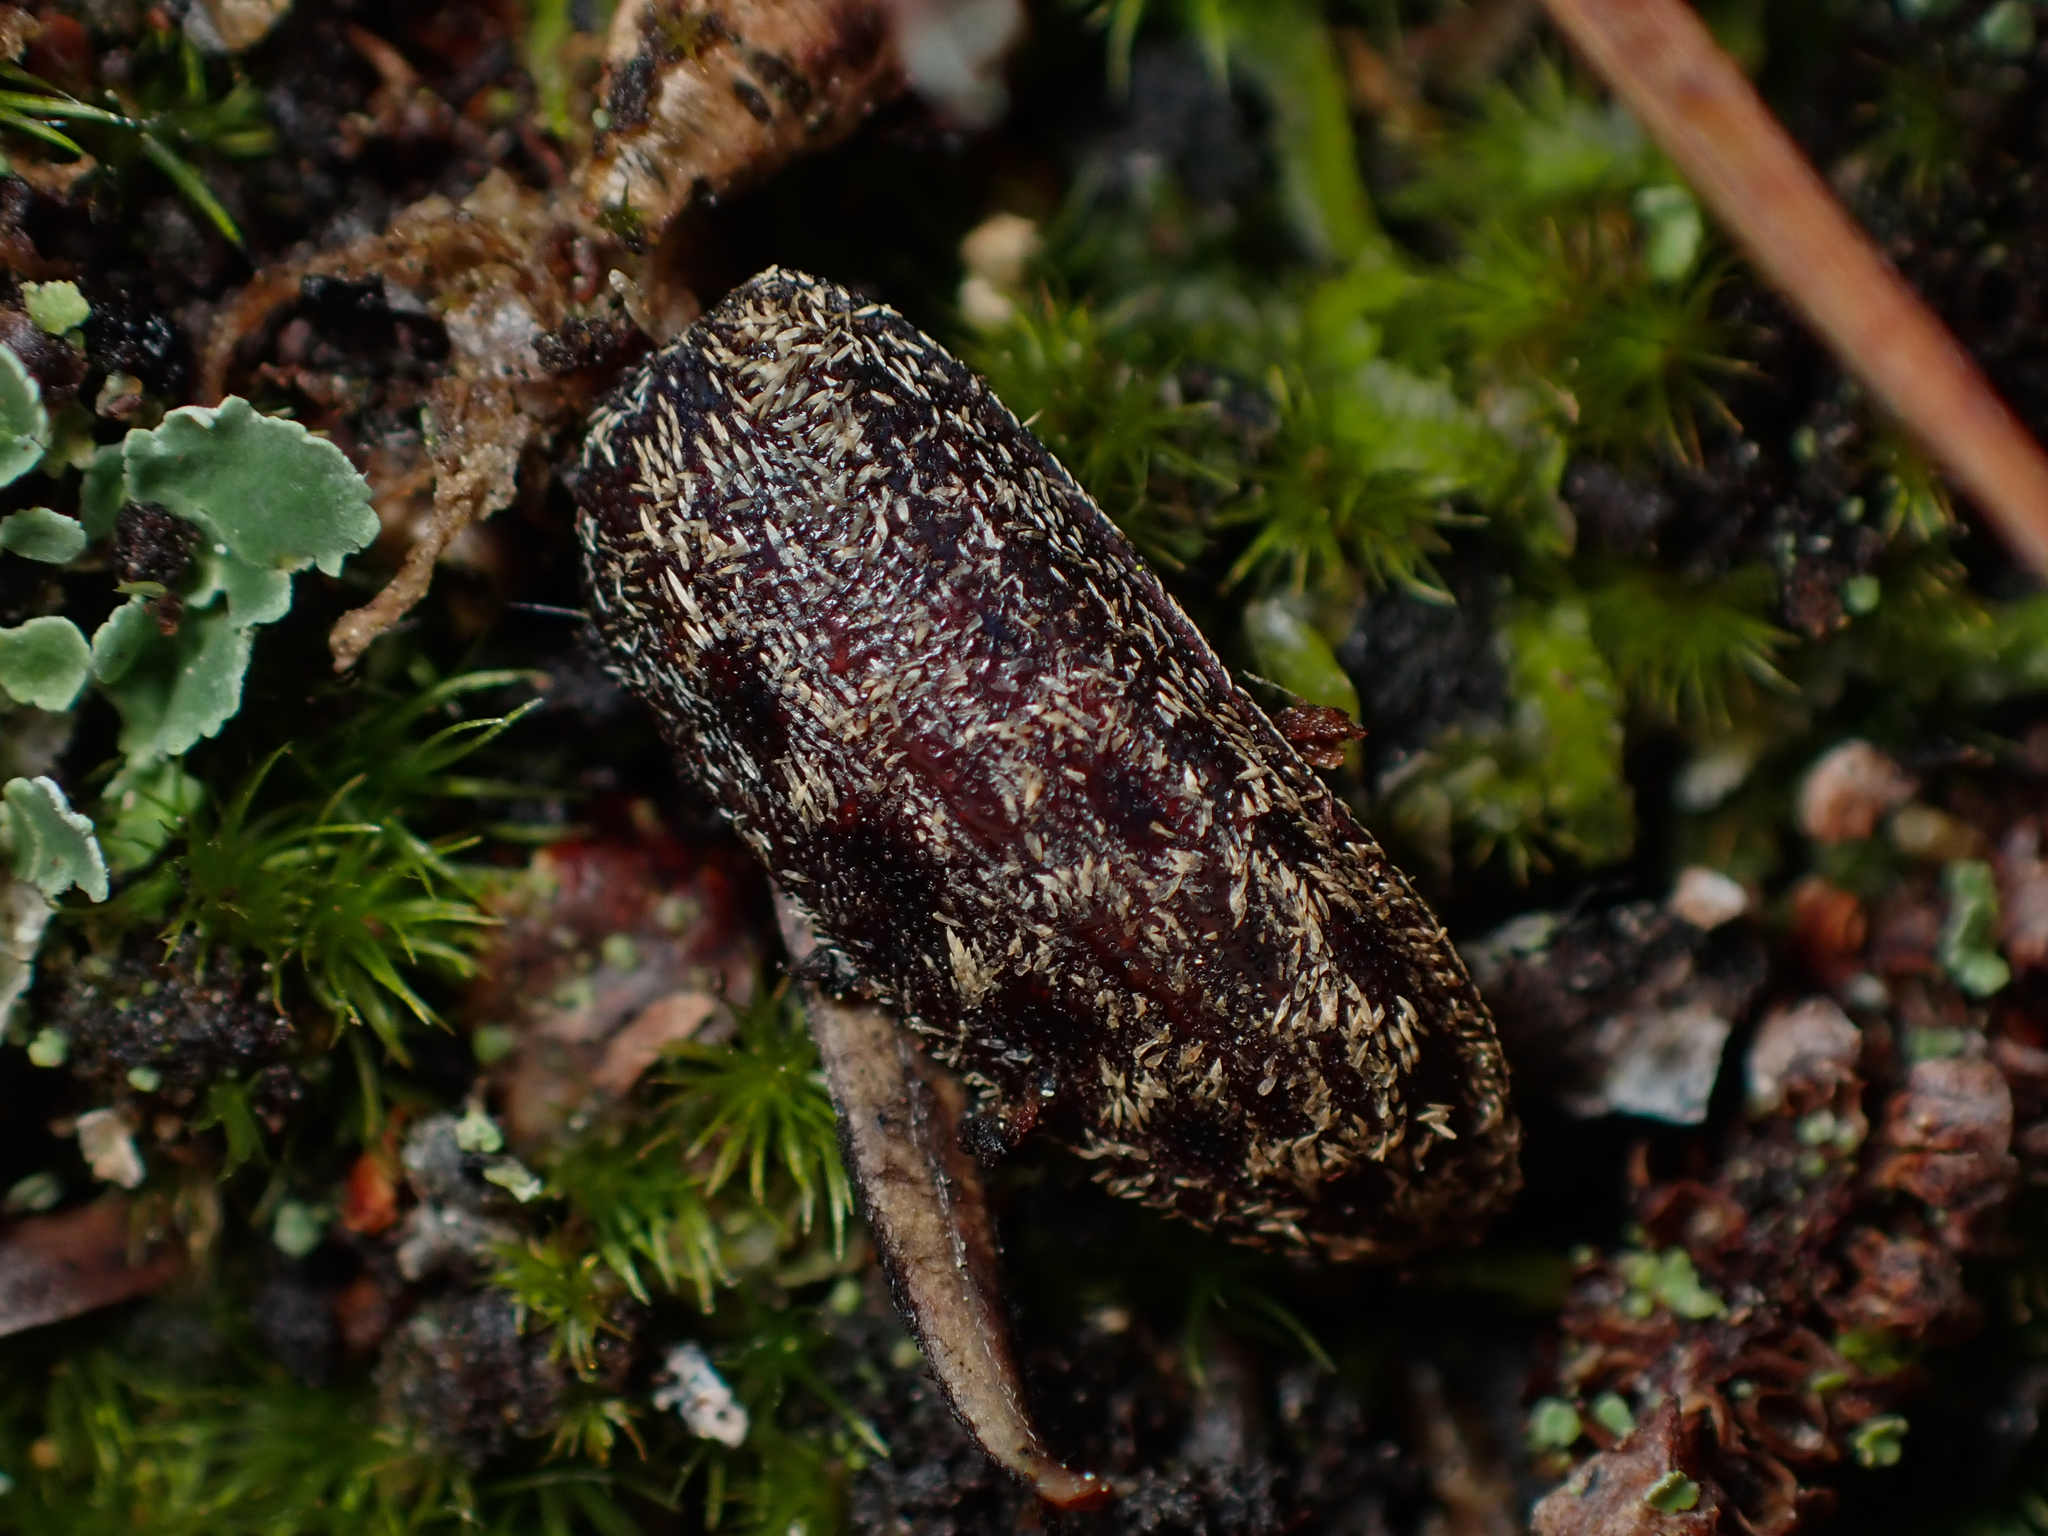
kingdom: Animalia
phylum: Arthropoda
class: Insecta
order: Coleoptera
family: Lucanidae
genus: Mitophyllus
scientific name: Mitophyllus falcatus
